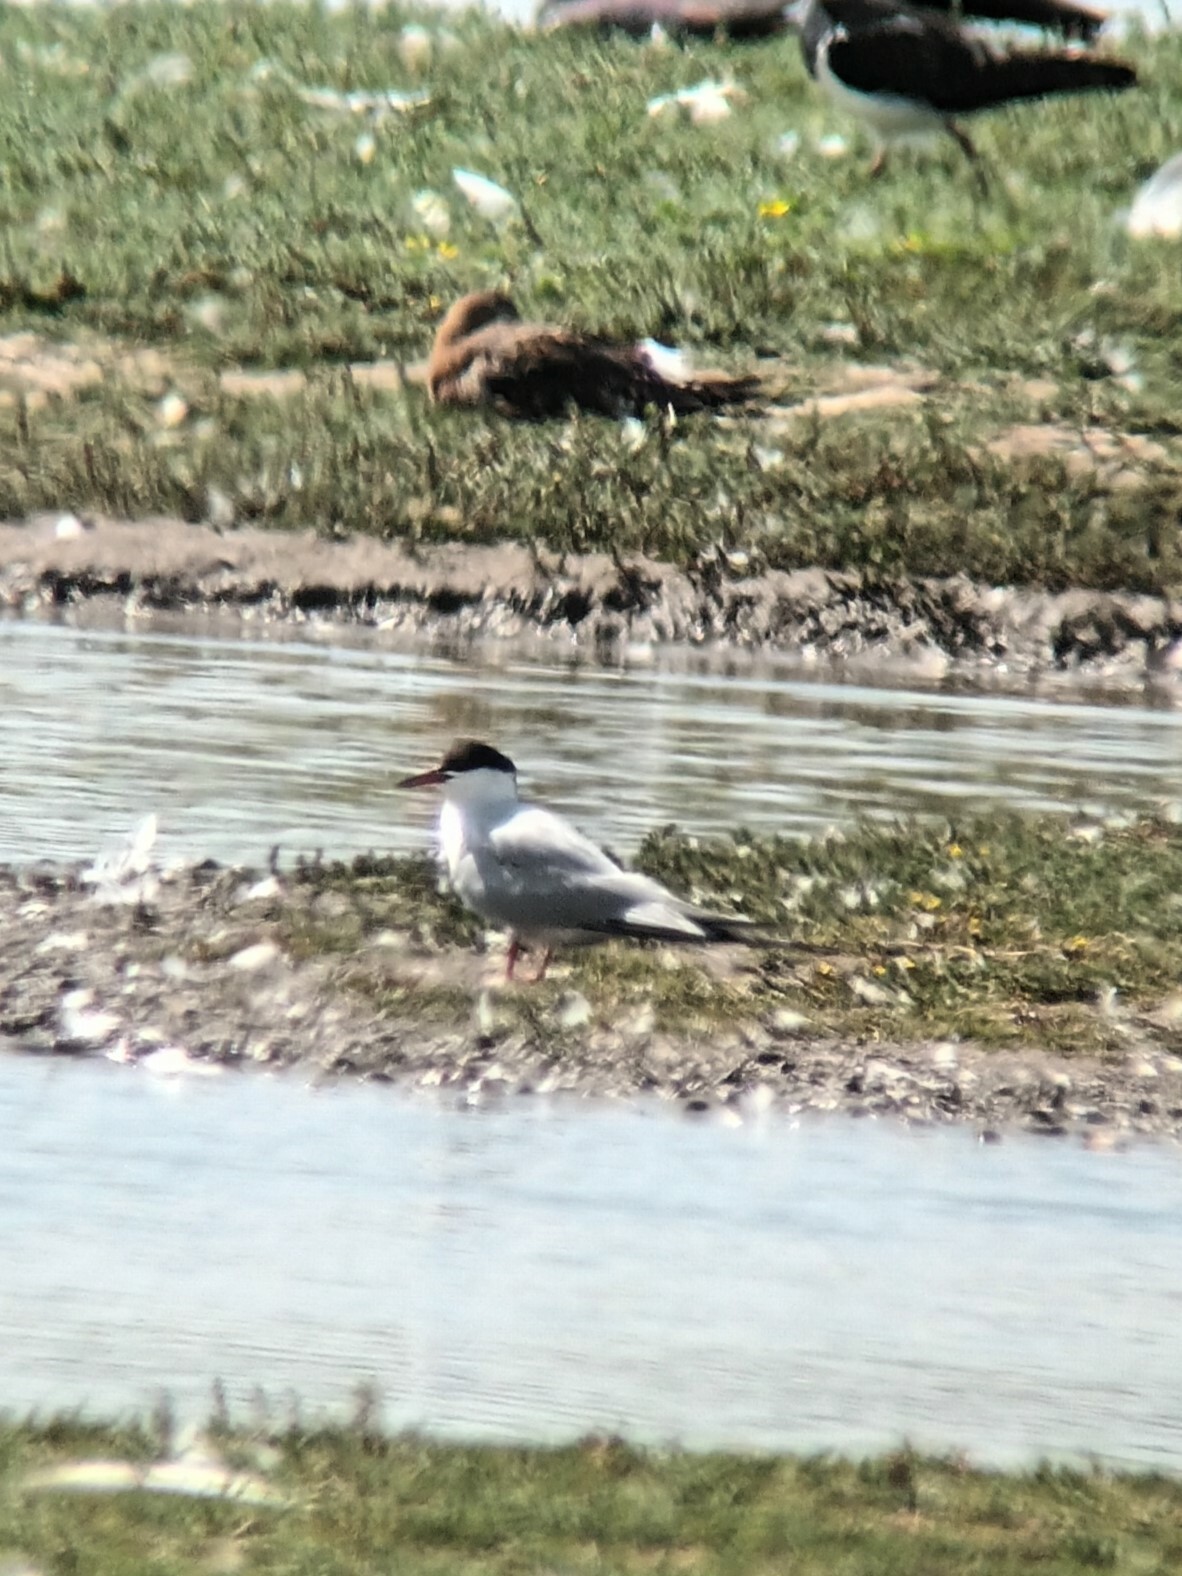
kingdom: Animalia
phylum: Chordata
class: Aves
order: Charadriiformes
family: Laridae
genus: Sterna
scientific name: Sterna hirundo
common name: Common tern
